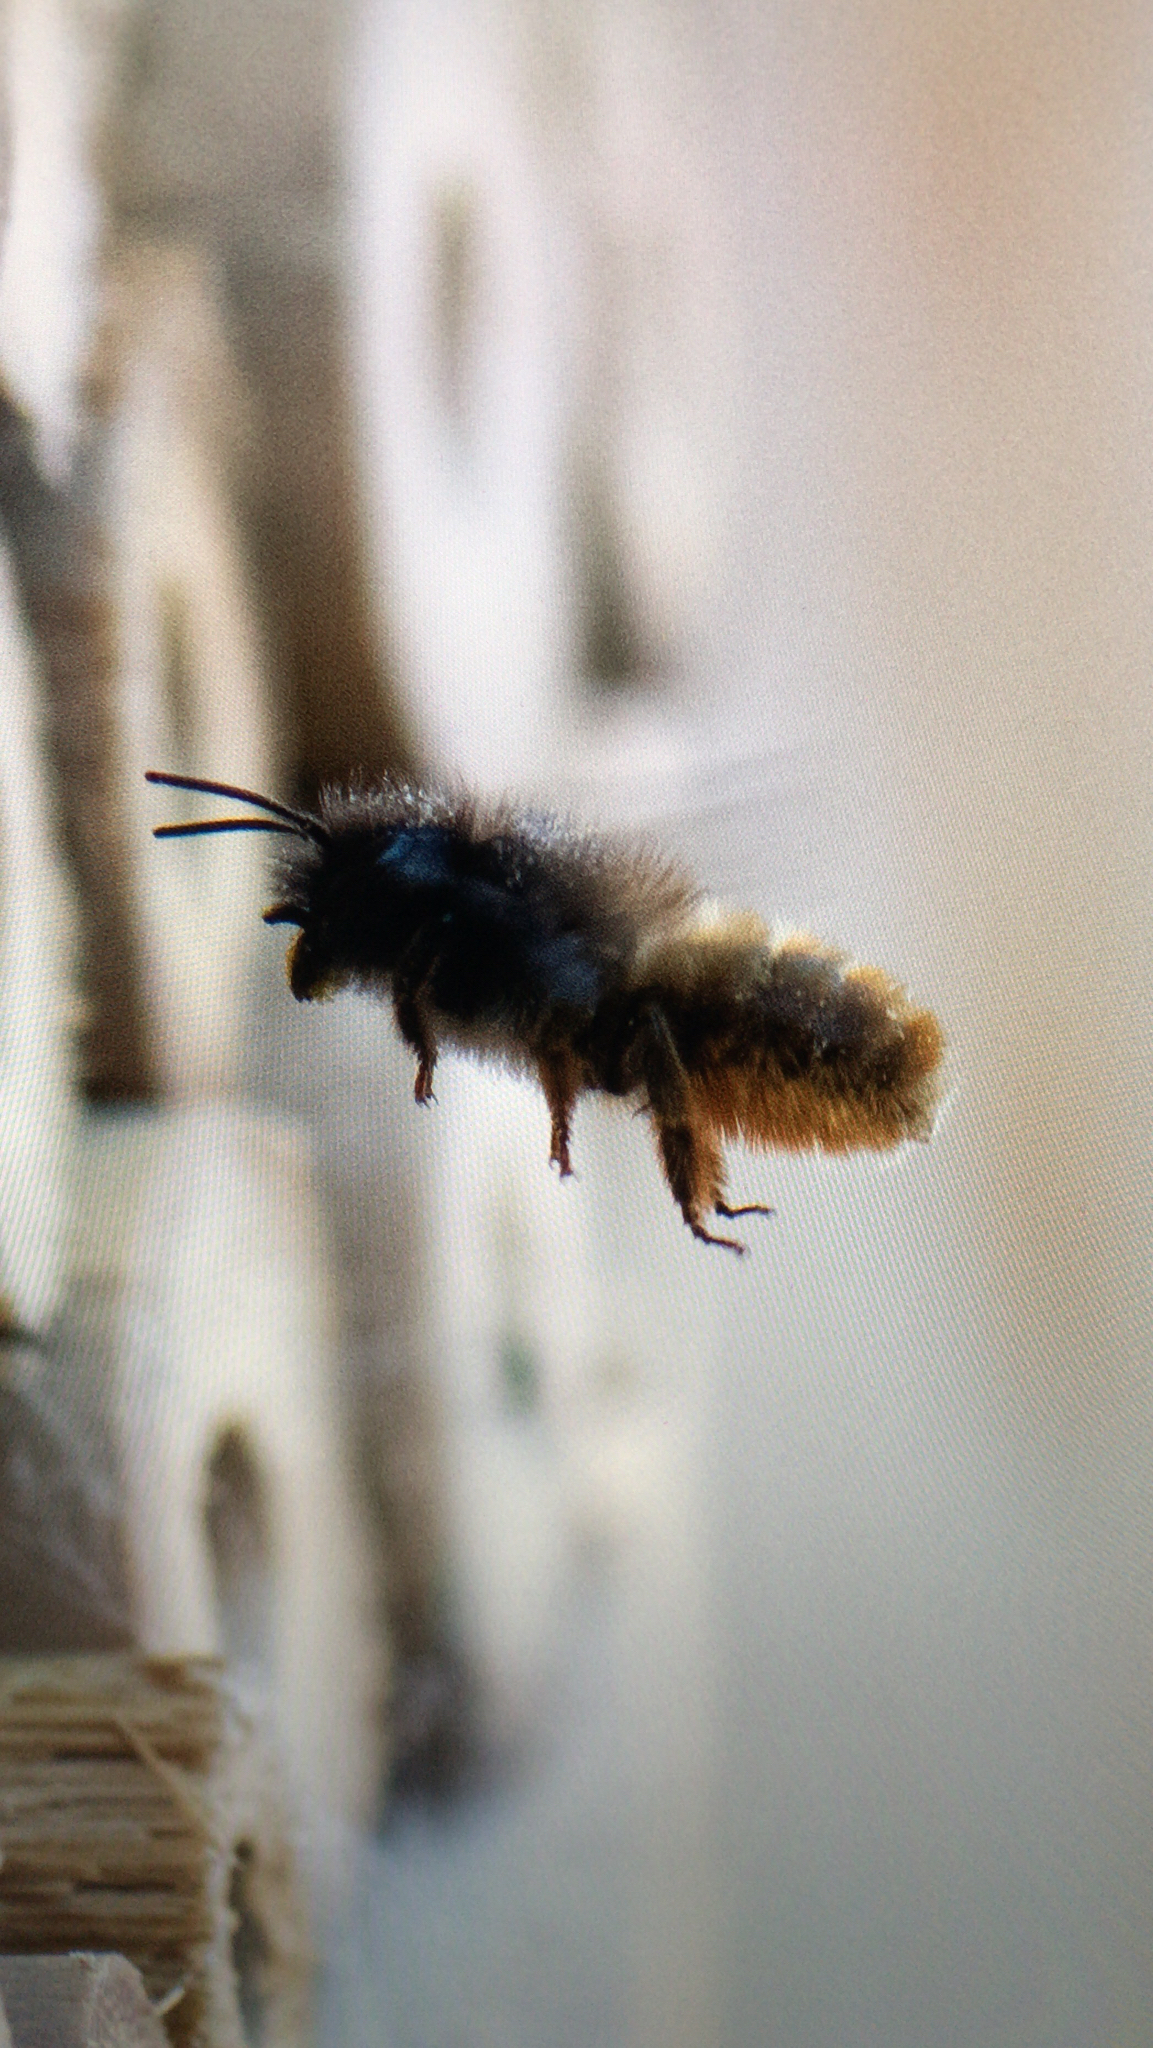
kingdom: Animalia
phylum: Arthropoda
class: Insecta
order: Hymenoptera
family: Megachilidae
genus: Osmia
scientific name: Osmia bicornis
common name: Red mason bee
